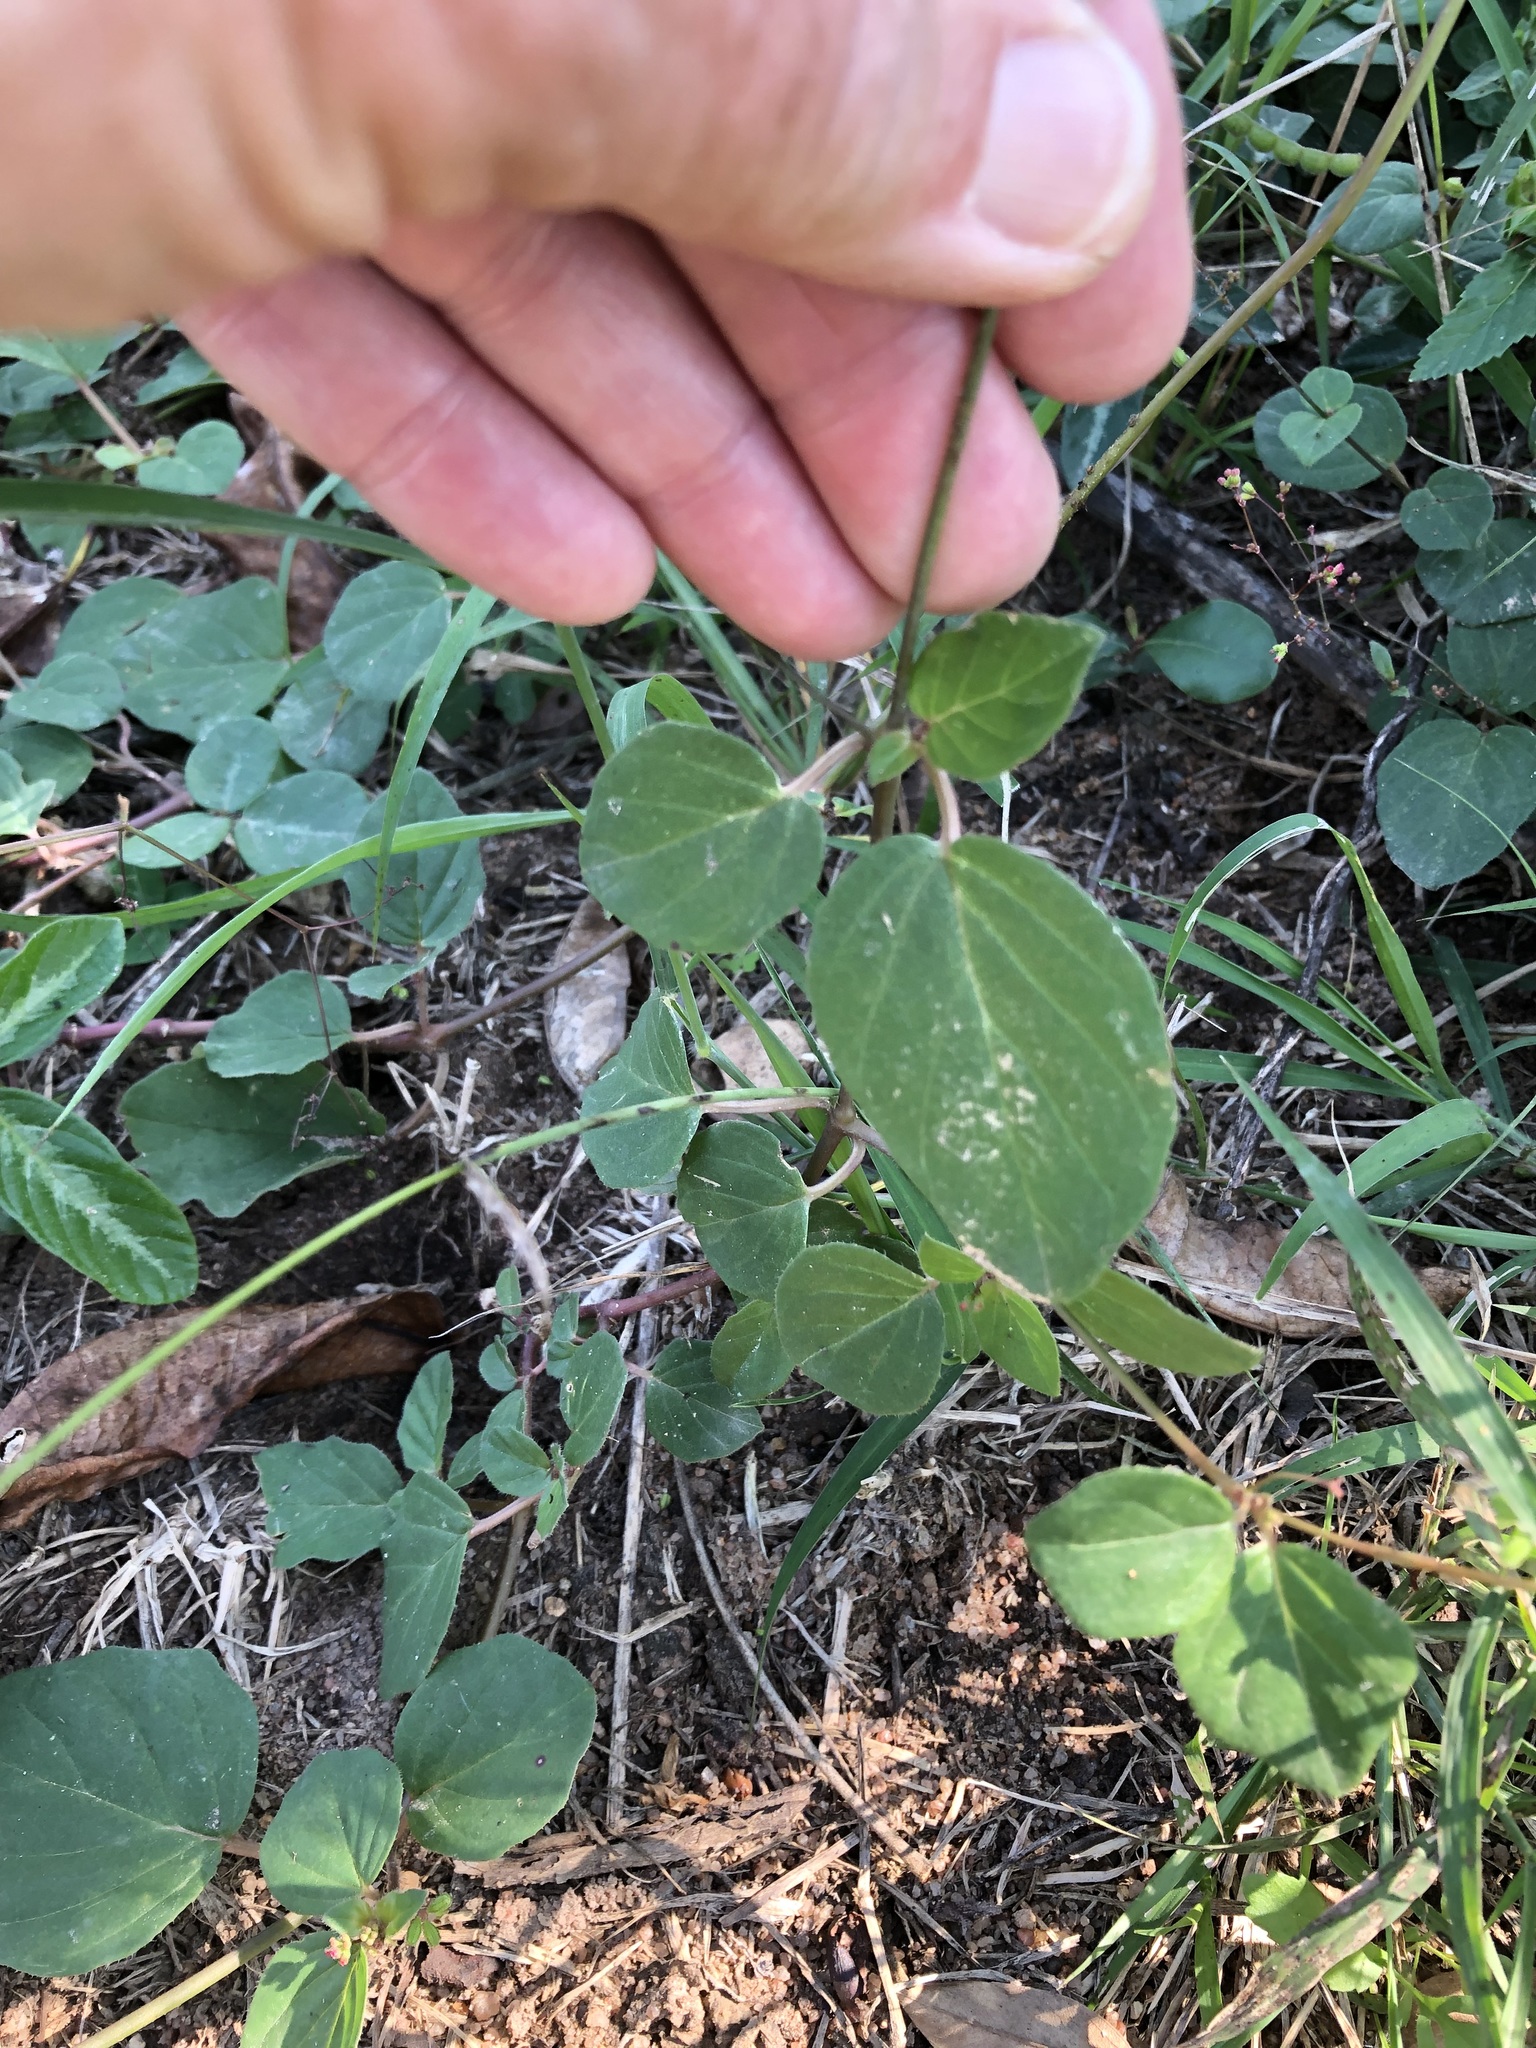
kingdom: Plantae
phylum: Tracheophyta
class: Magnoliopsida
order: Caryophyllales
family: Nyctaginaceae
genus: Boerhavia
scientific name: Boerhavia diffusa
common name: Red spiderling
